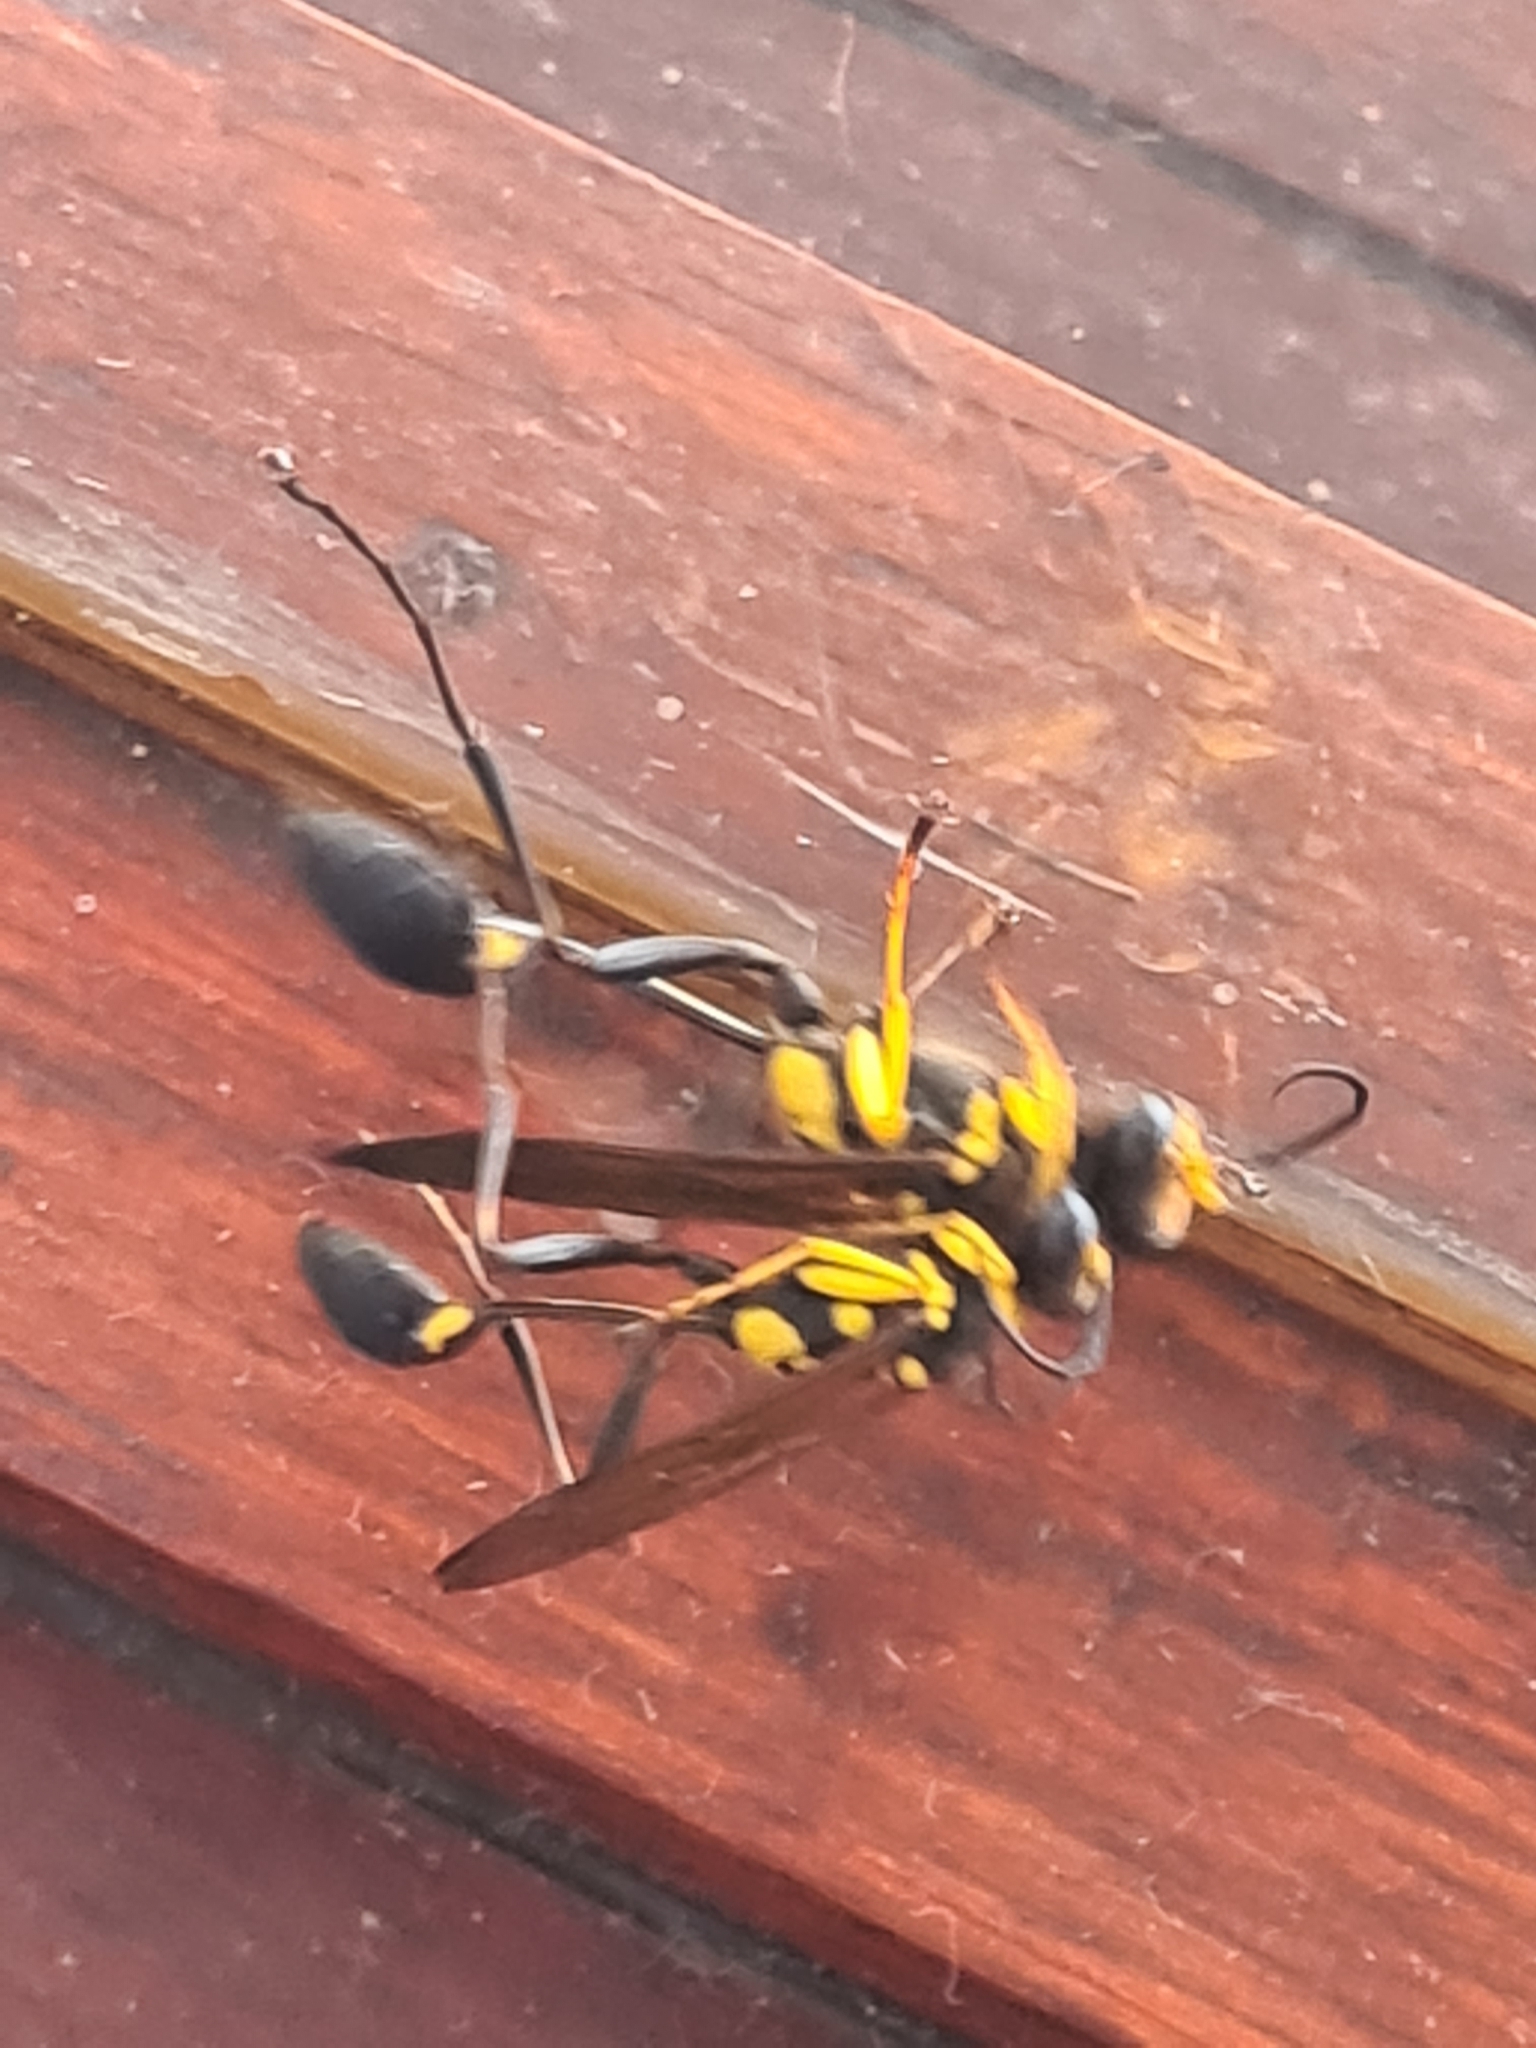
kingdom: Animalia
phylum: Arthropoda
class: Insecta
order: Hymenoptera
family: Sphecidae
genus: Sceliphron
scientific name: Sceliphron asiaticum
